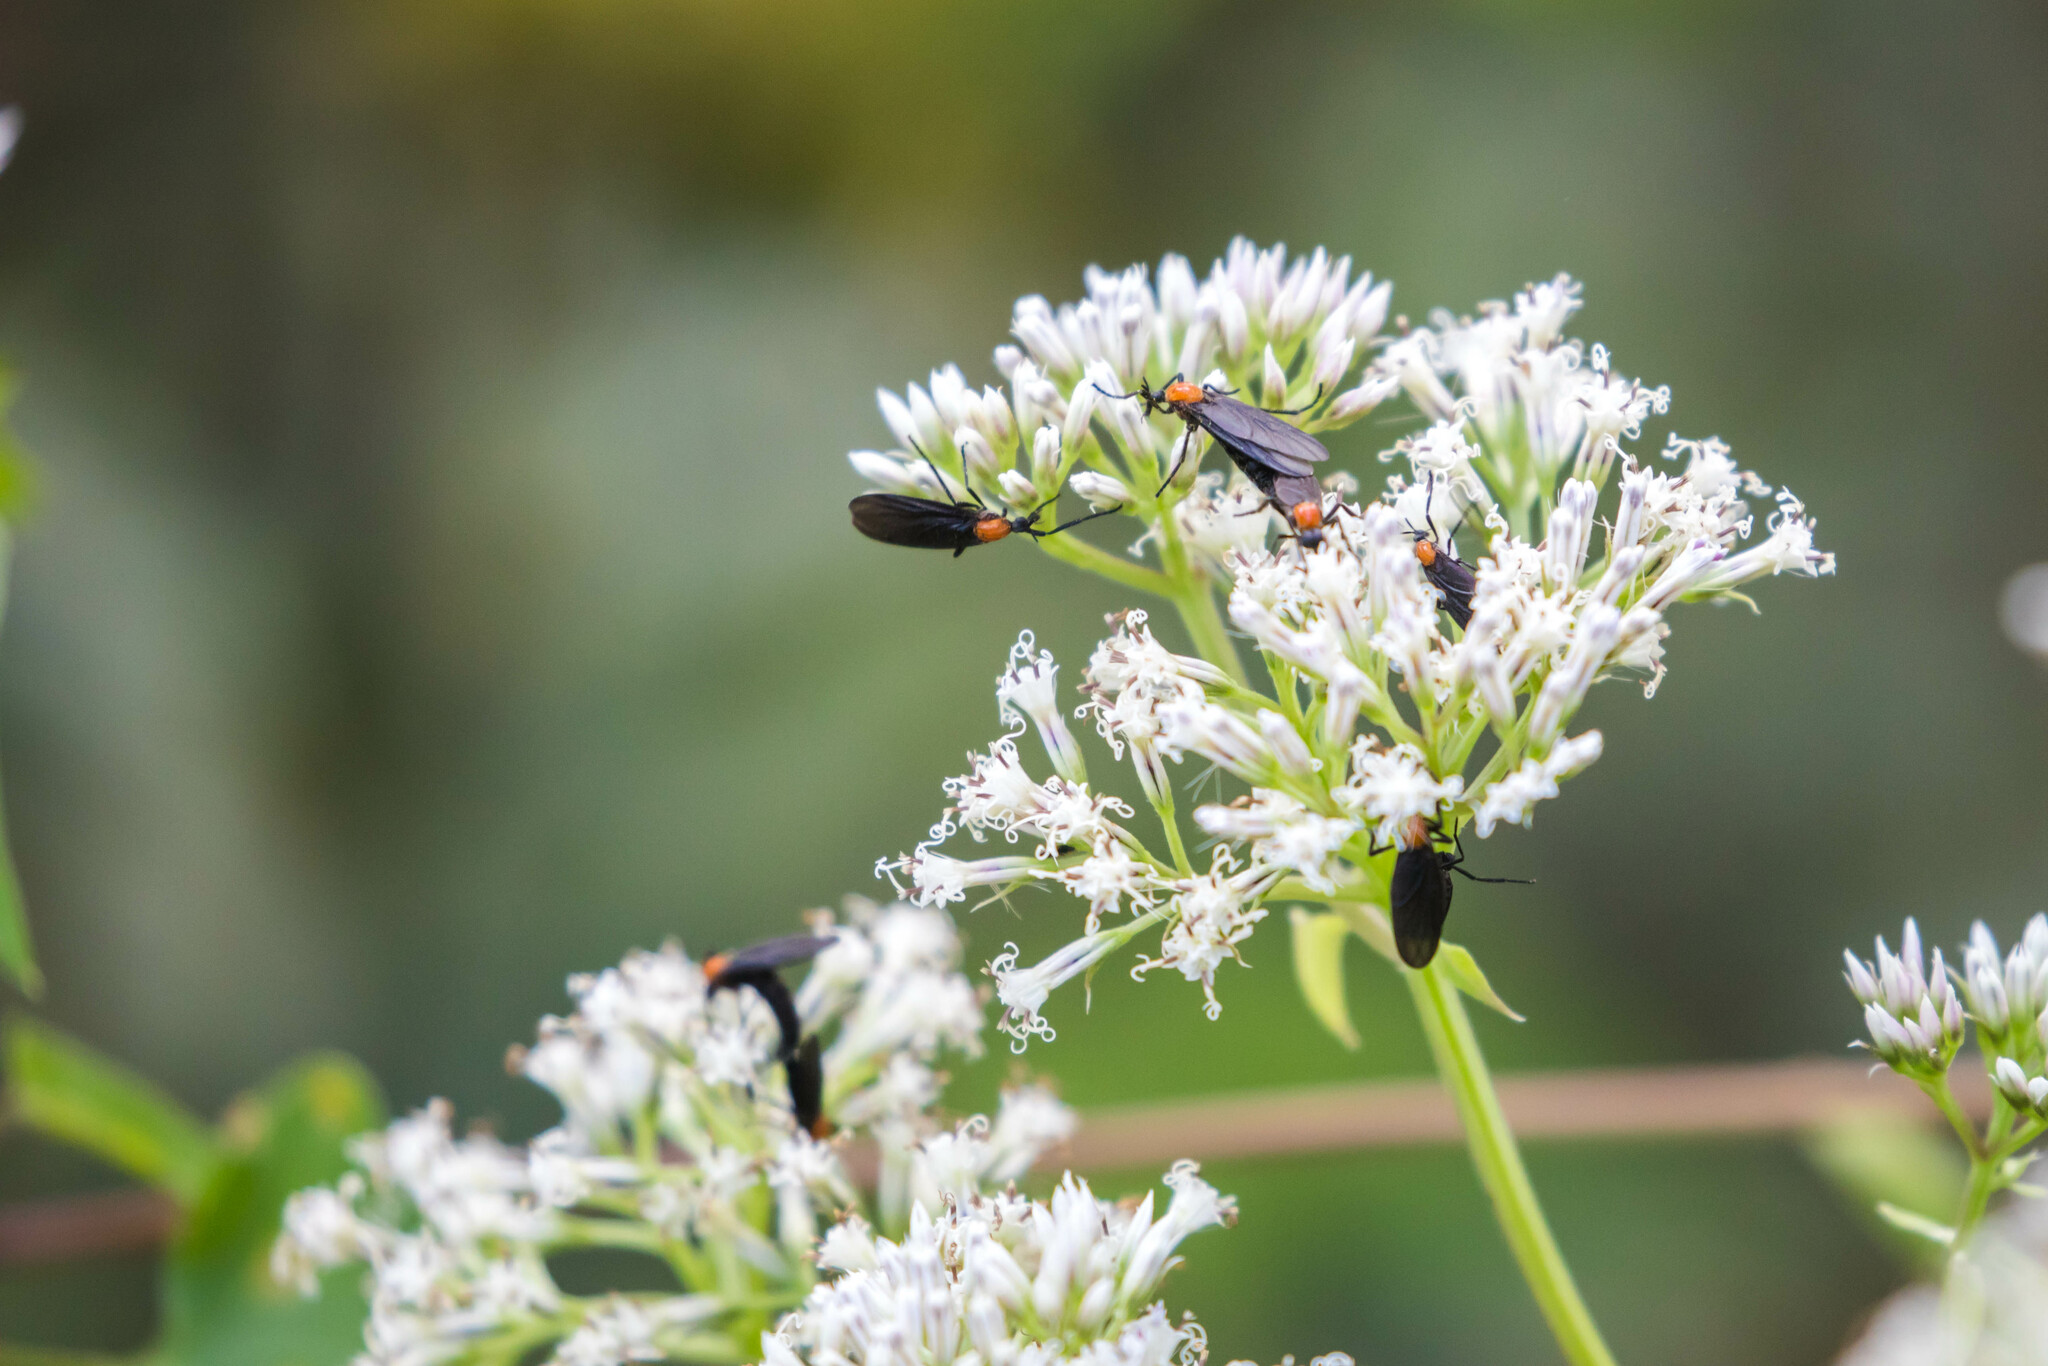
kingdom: Animalia
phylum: Arthropoda
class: Insecta
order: Diptera
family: Bibionidae
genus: Plecia
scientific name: Plecia nearctica
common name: March fly
